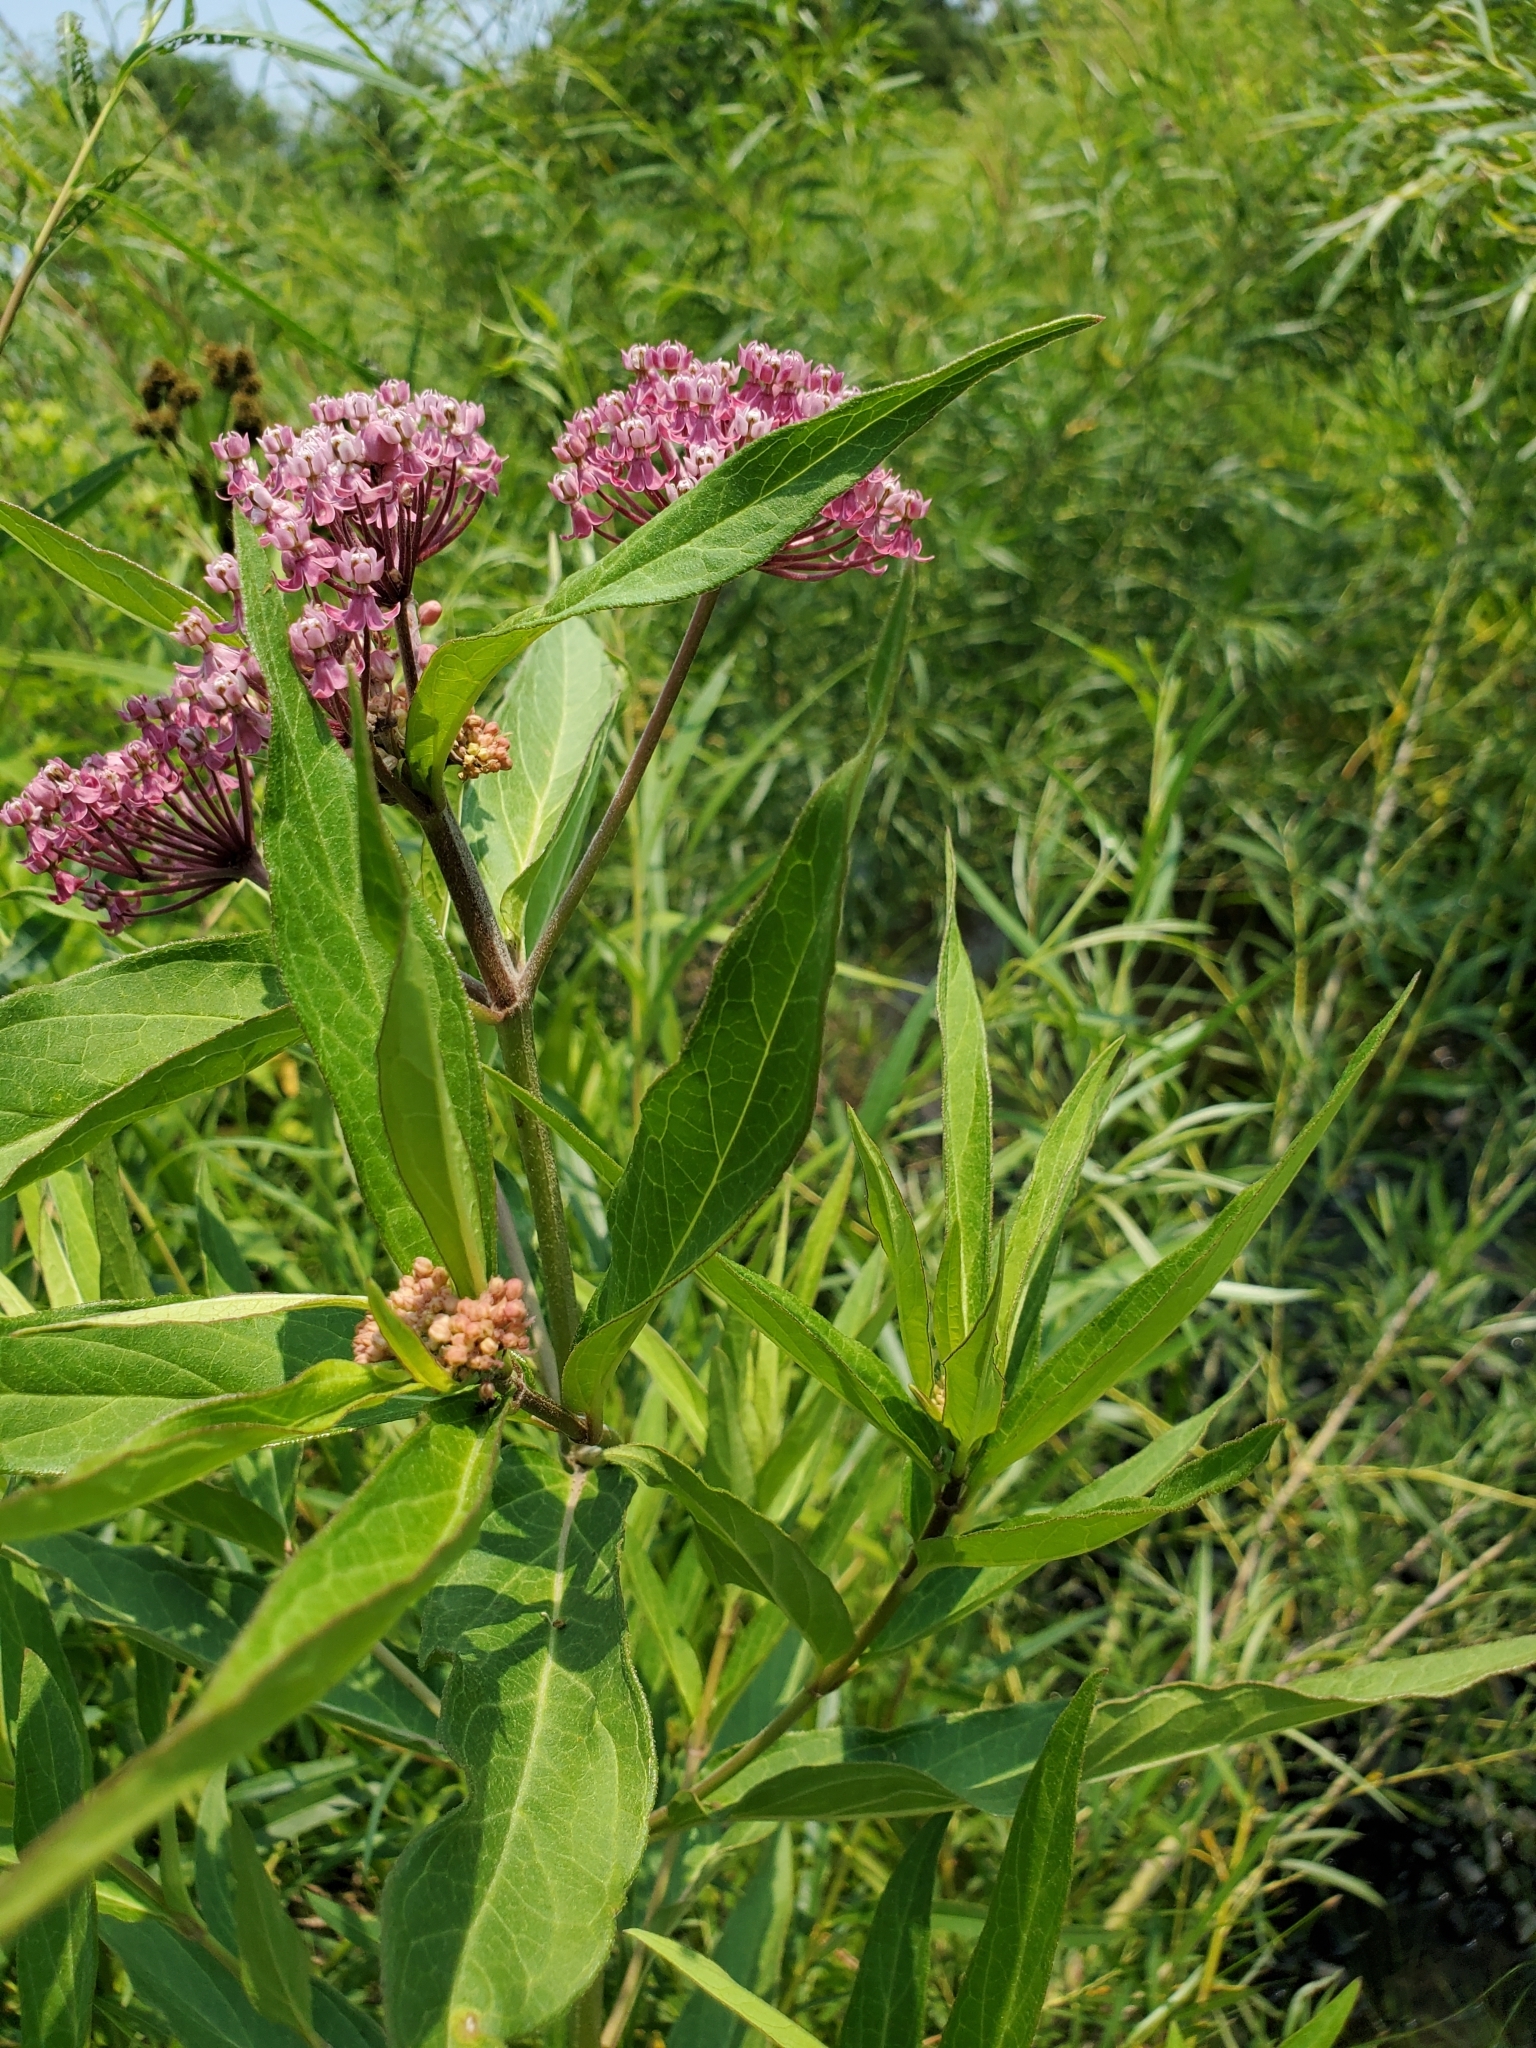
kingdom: Plantae
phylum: Tracheophyta
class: Magnoliopsida
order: Gentianales
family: Apocynaceae
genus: Asclepias
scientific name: Asclepias incarnata
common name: Swamp milkweed
